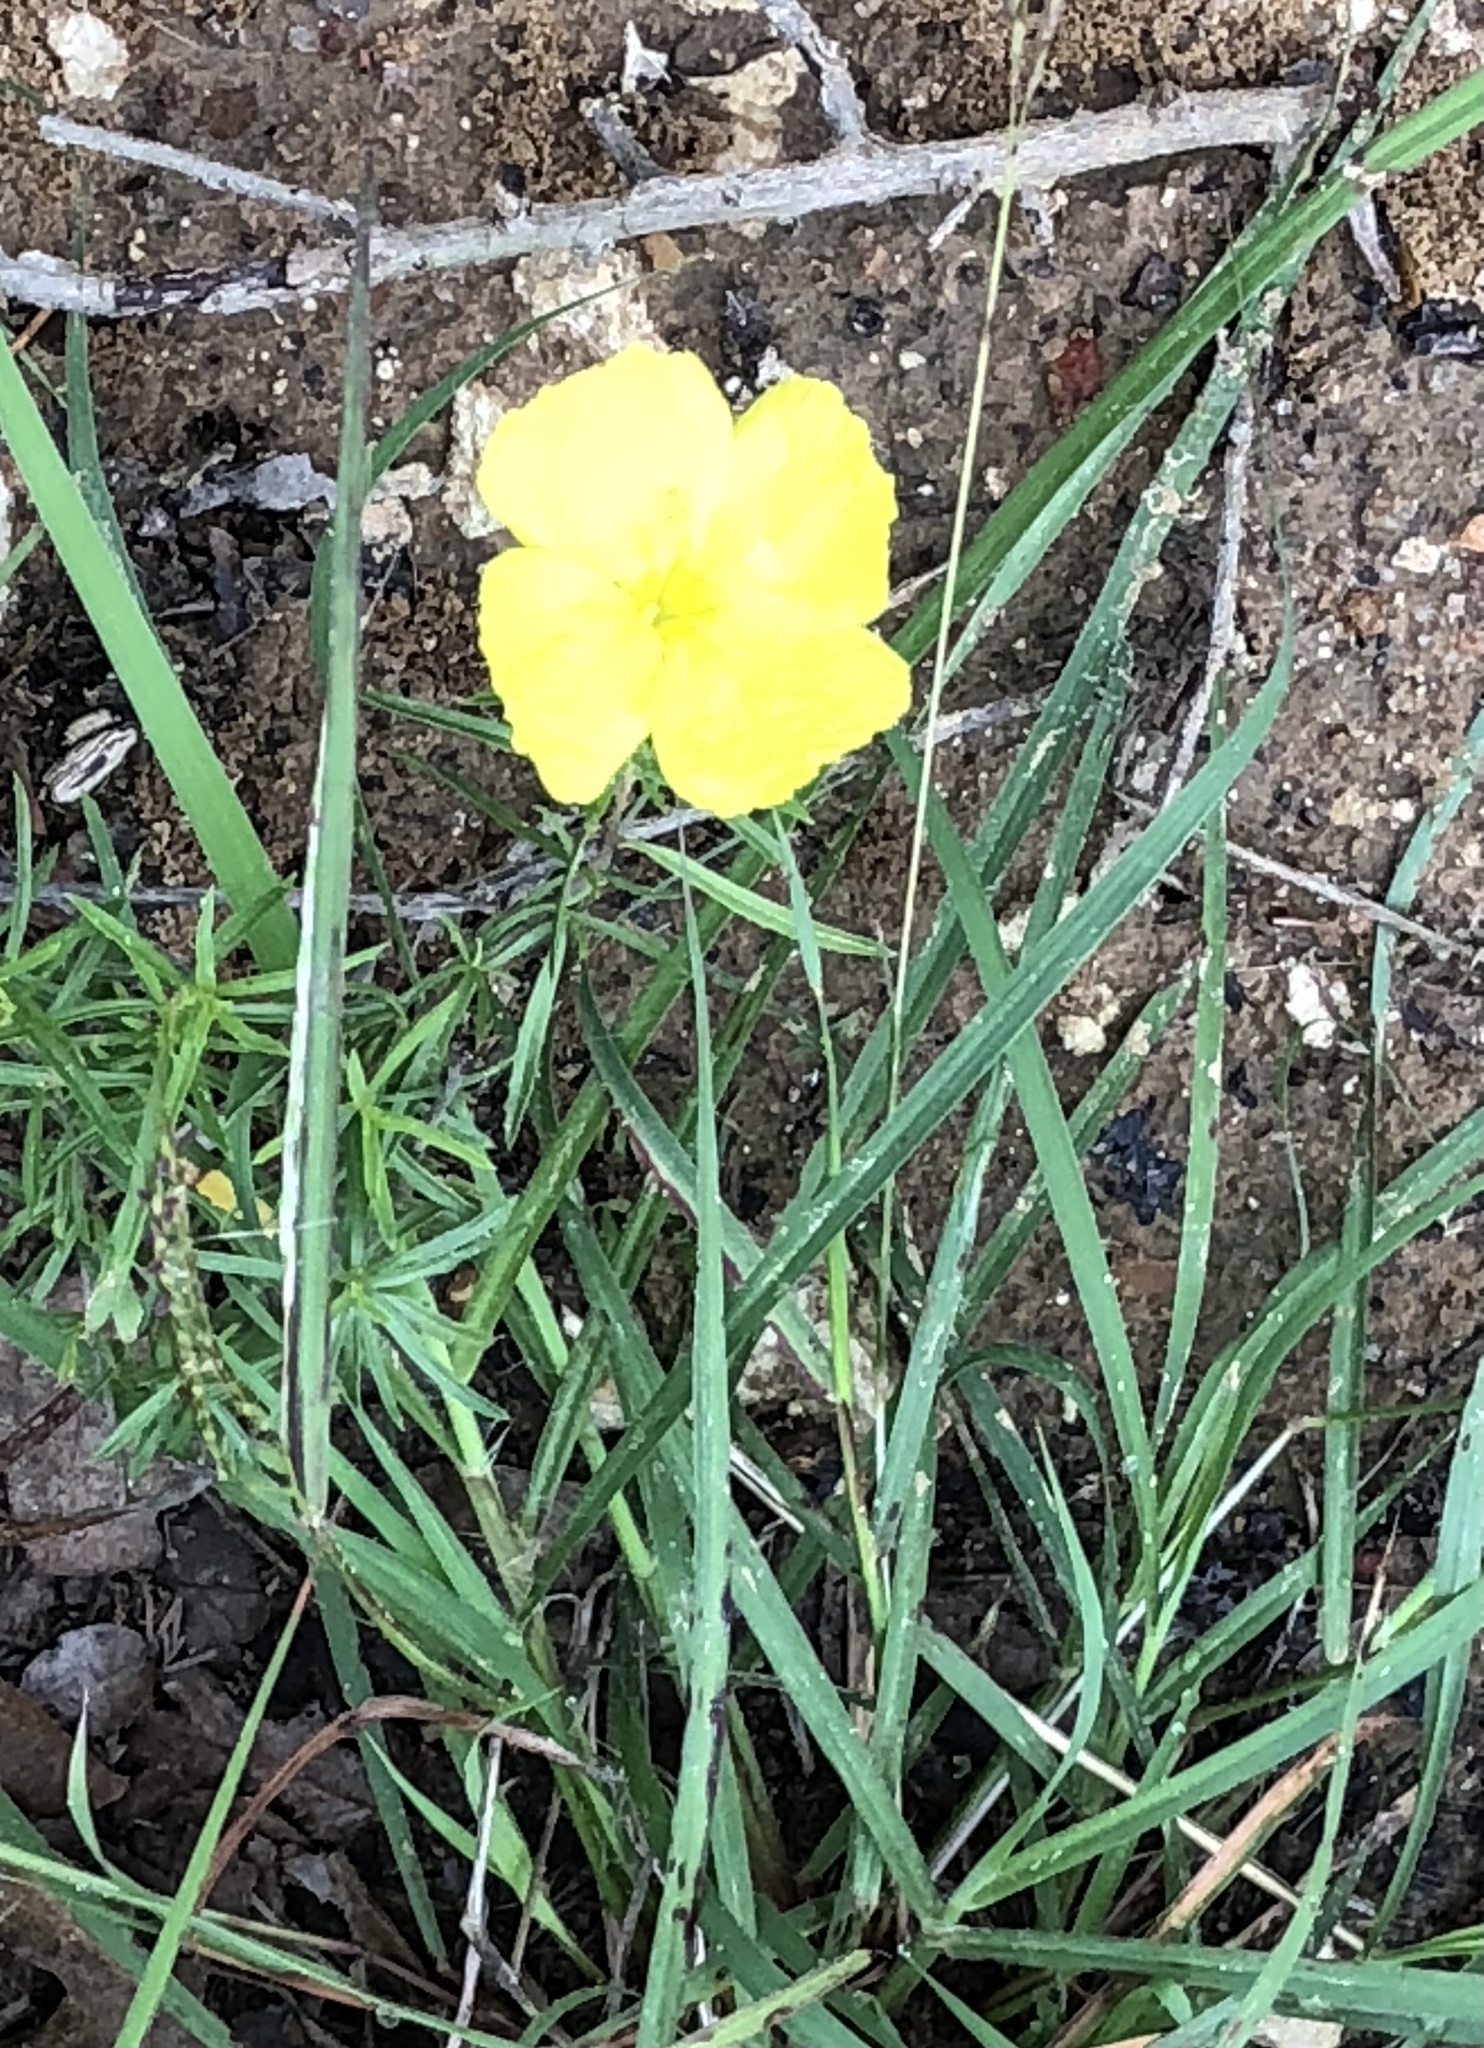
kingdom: Plantae
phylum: Tracheophyta
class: Magnoliopsida
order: Myrtales
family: Onagraceae
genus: Oenothera
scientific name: Oenothera
